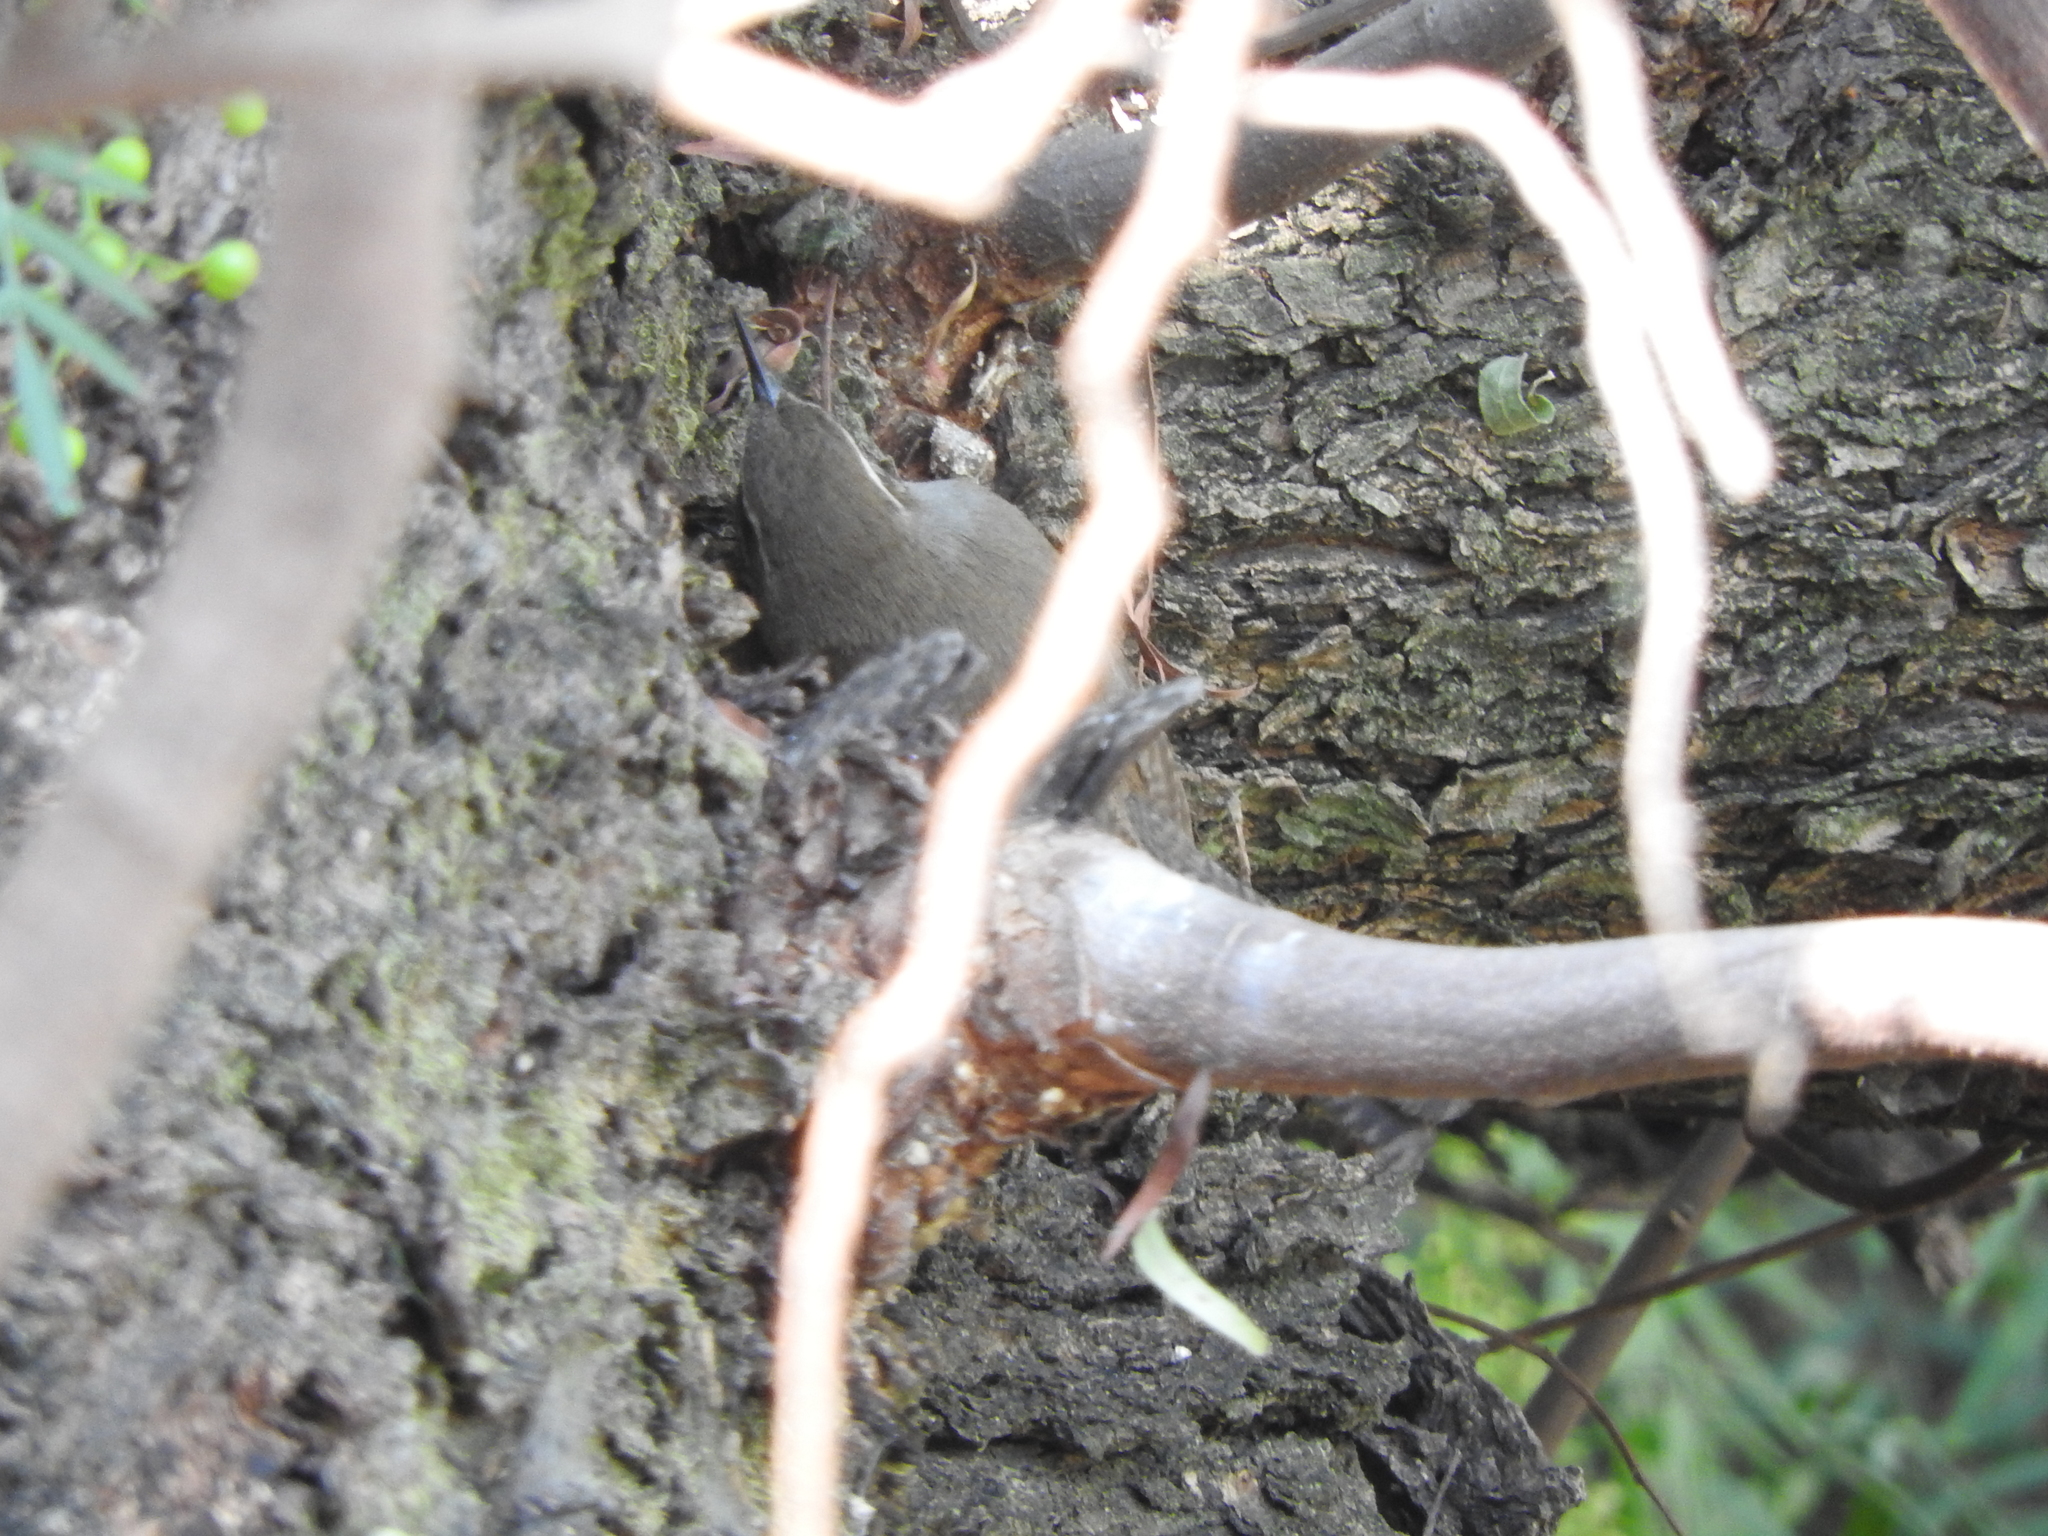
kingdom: Animalia
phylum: Chordata
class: Aves
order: Passeriformes
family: Troglodytidae
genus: Thryomanes
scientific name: Thryomanes bewickii
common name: Bewick's wren
